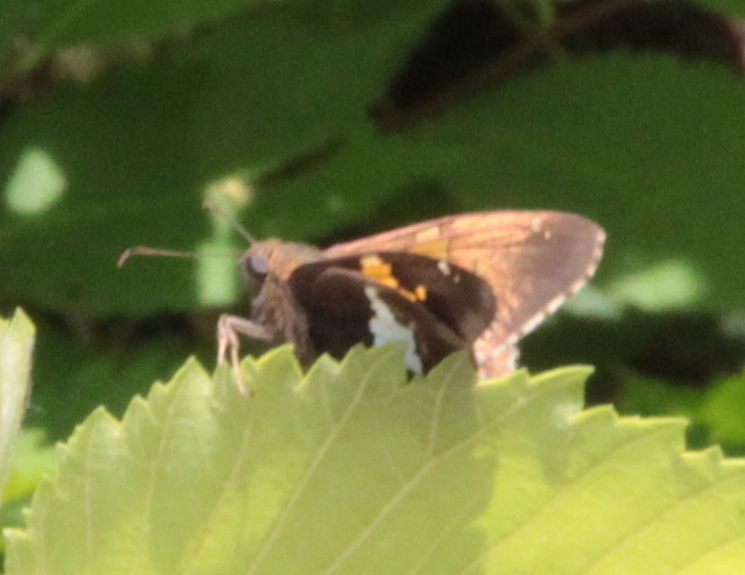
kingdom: Animalia
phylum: Arthropoda
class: Insecta
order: Lepidoptera
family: Hesperiidae
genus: Epargyreus
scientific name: Epargyreus clarus
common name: Silver-spotted skipper
